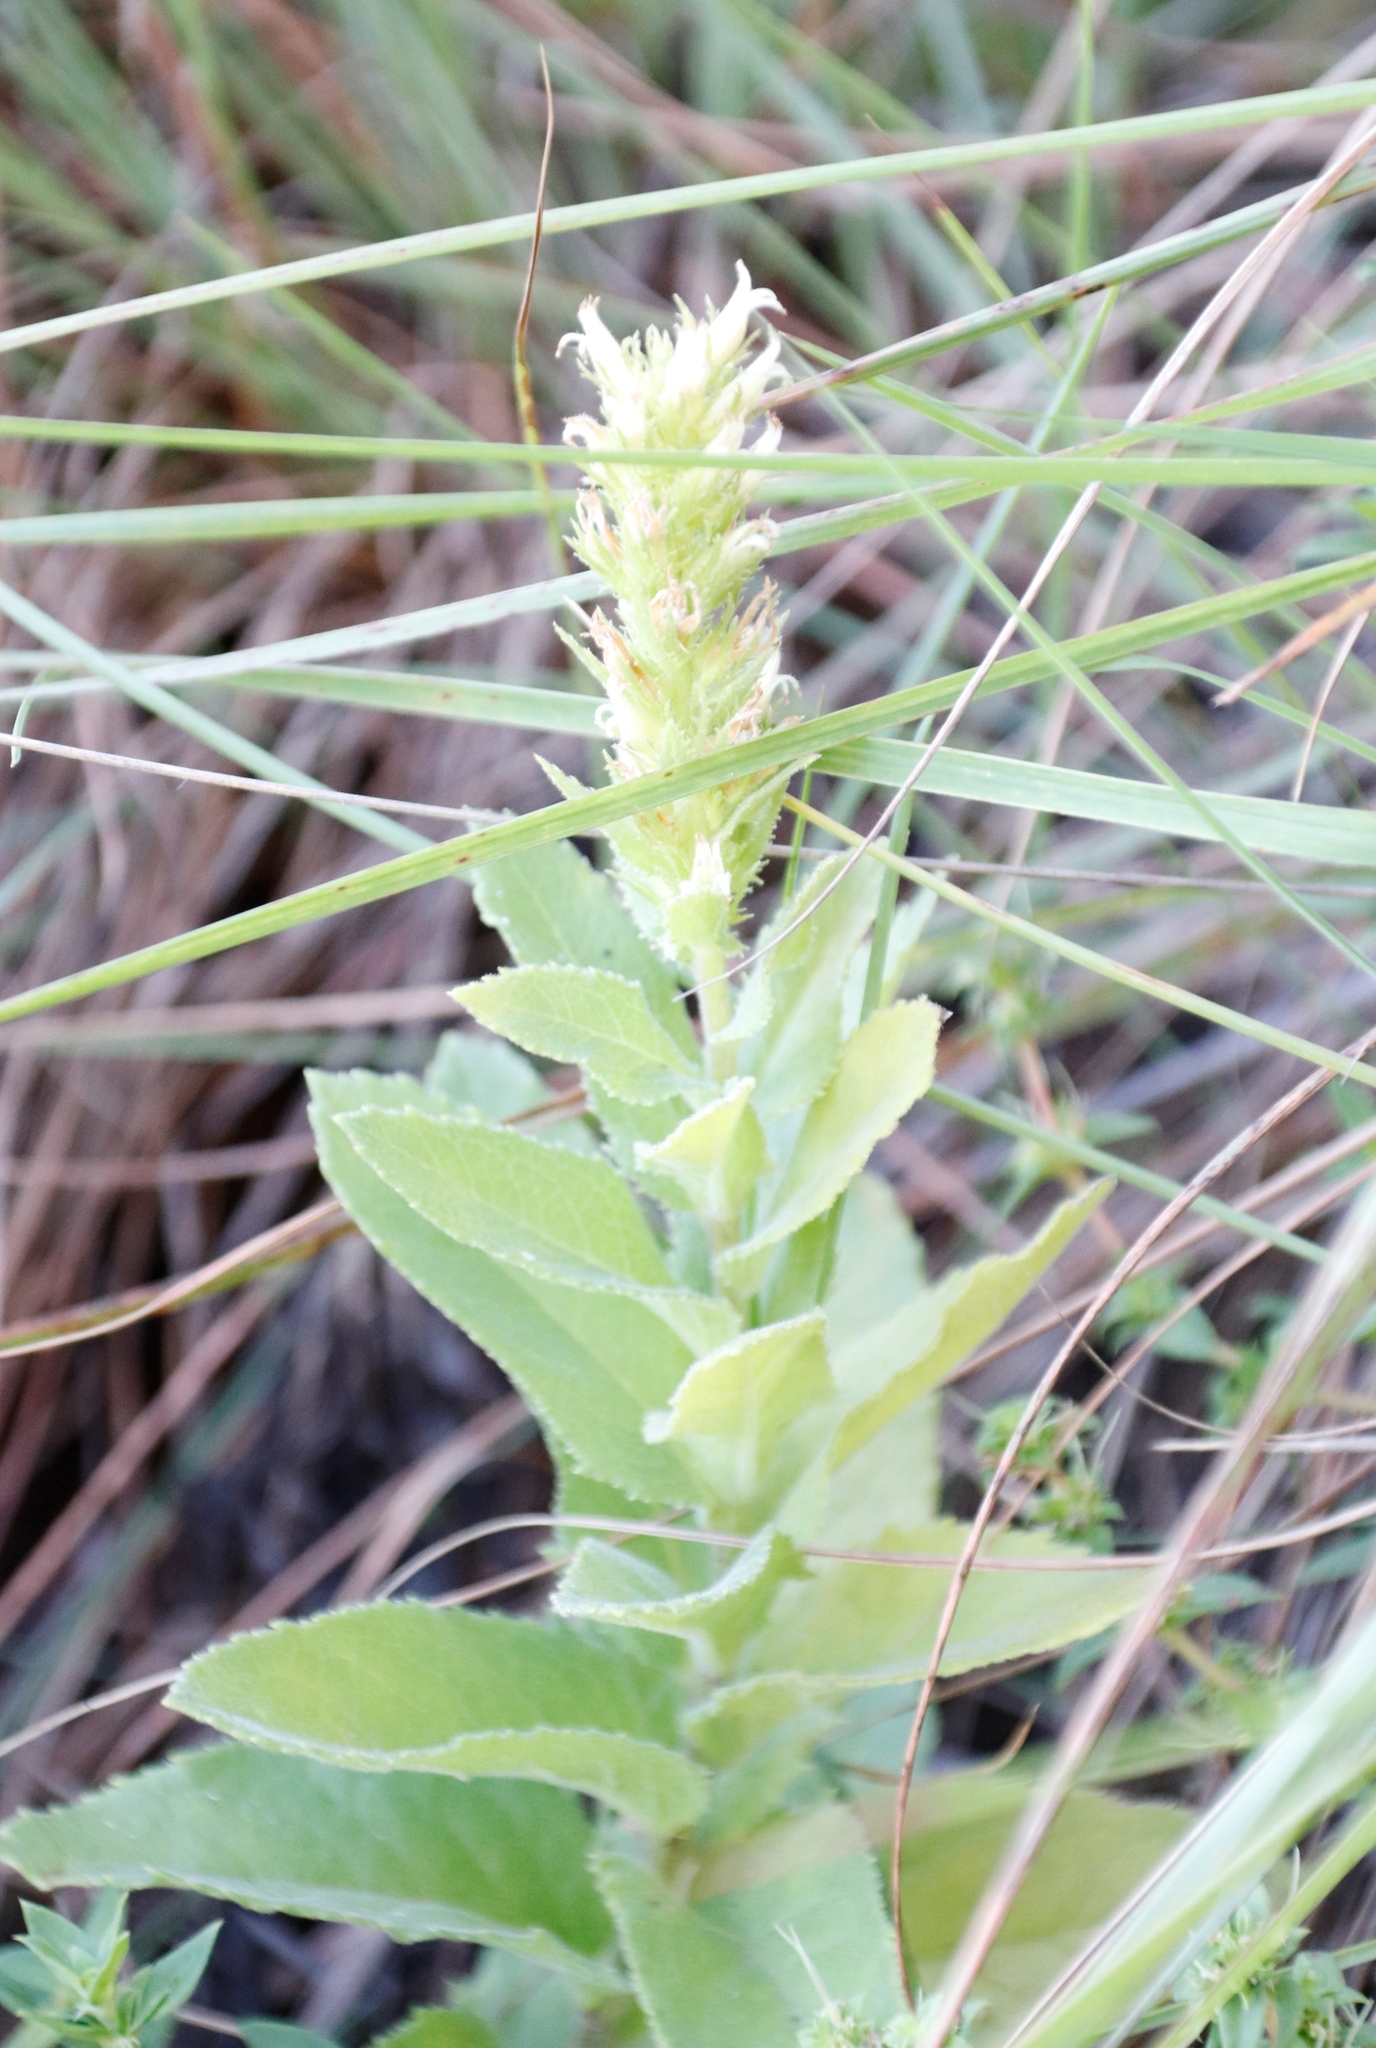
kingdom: Plantae
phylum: Tracheophyta
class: Magnoliopsida
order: Asterales
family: Campanulaceae
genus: Cyphia
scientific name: Cyphia elata
